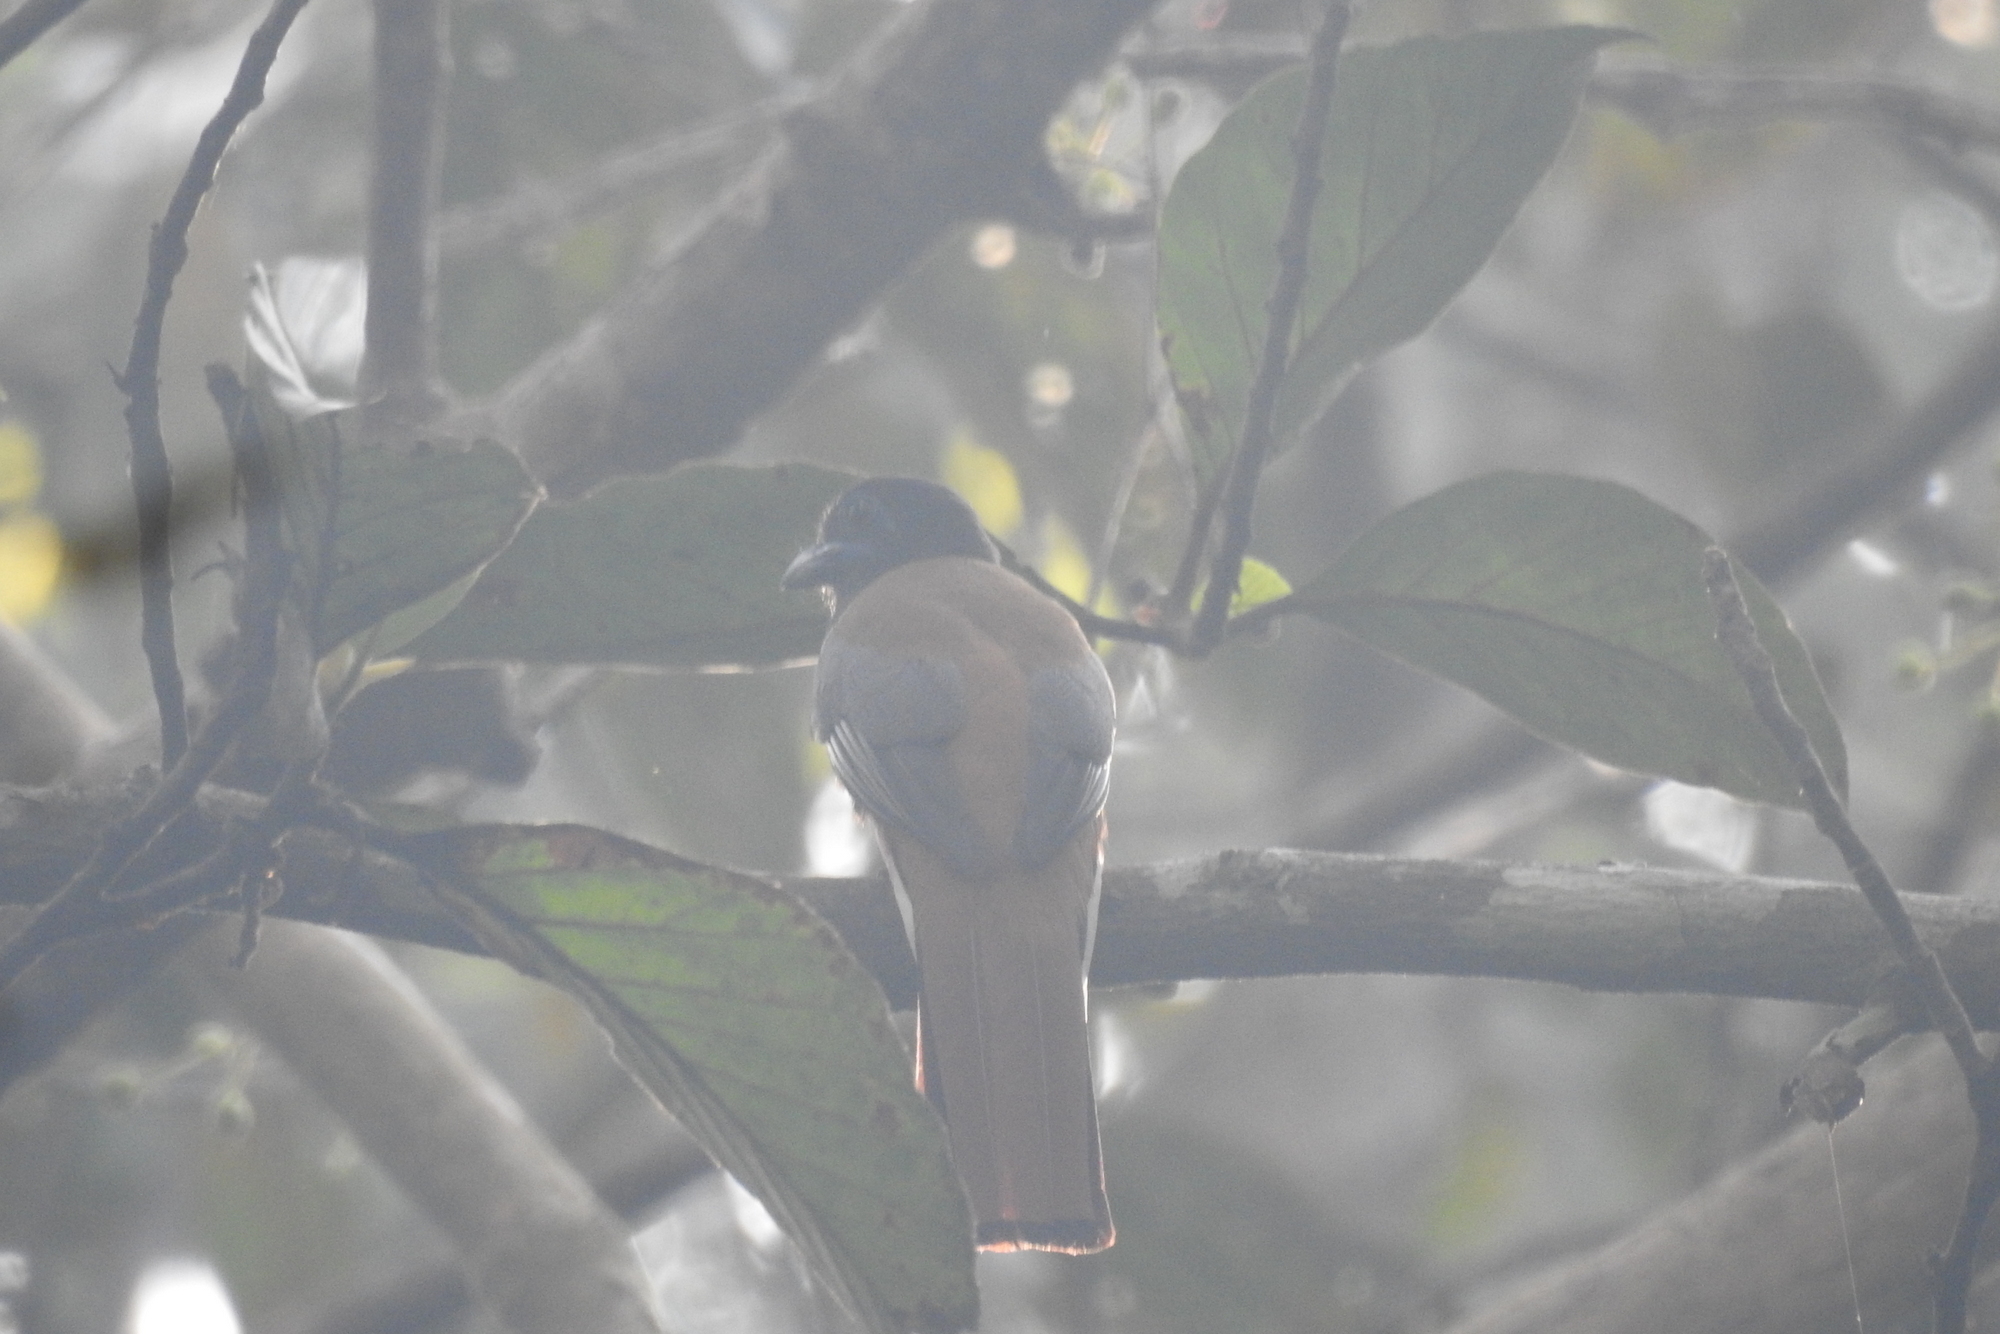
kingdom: Animalia
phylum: Chordata
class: Aves
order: Trogoniformes
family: Trogonidae
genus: Harpactes
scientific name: Harpactes fasciatus
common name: Malabar trogon
